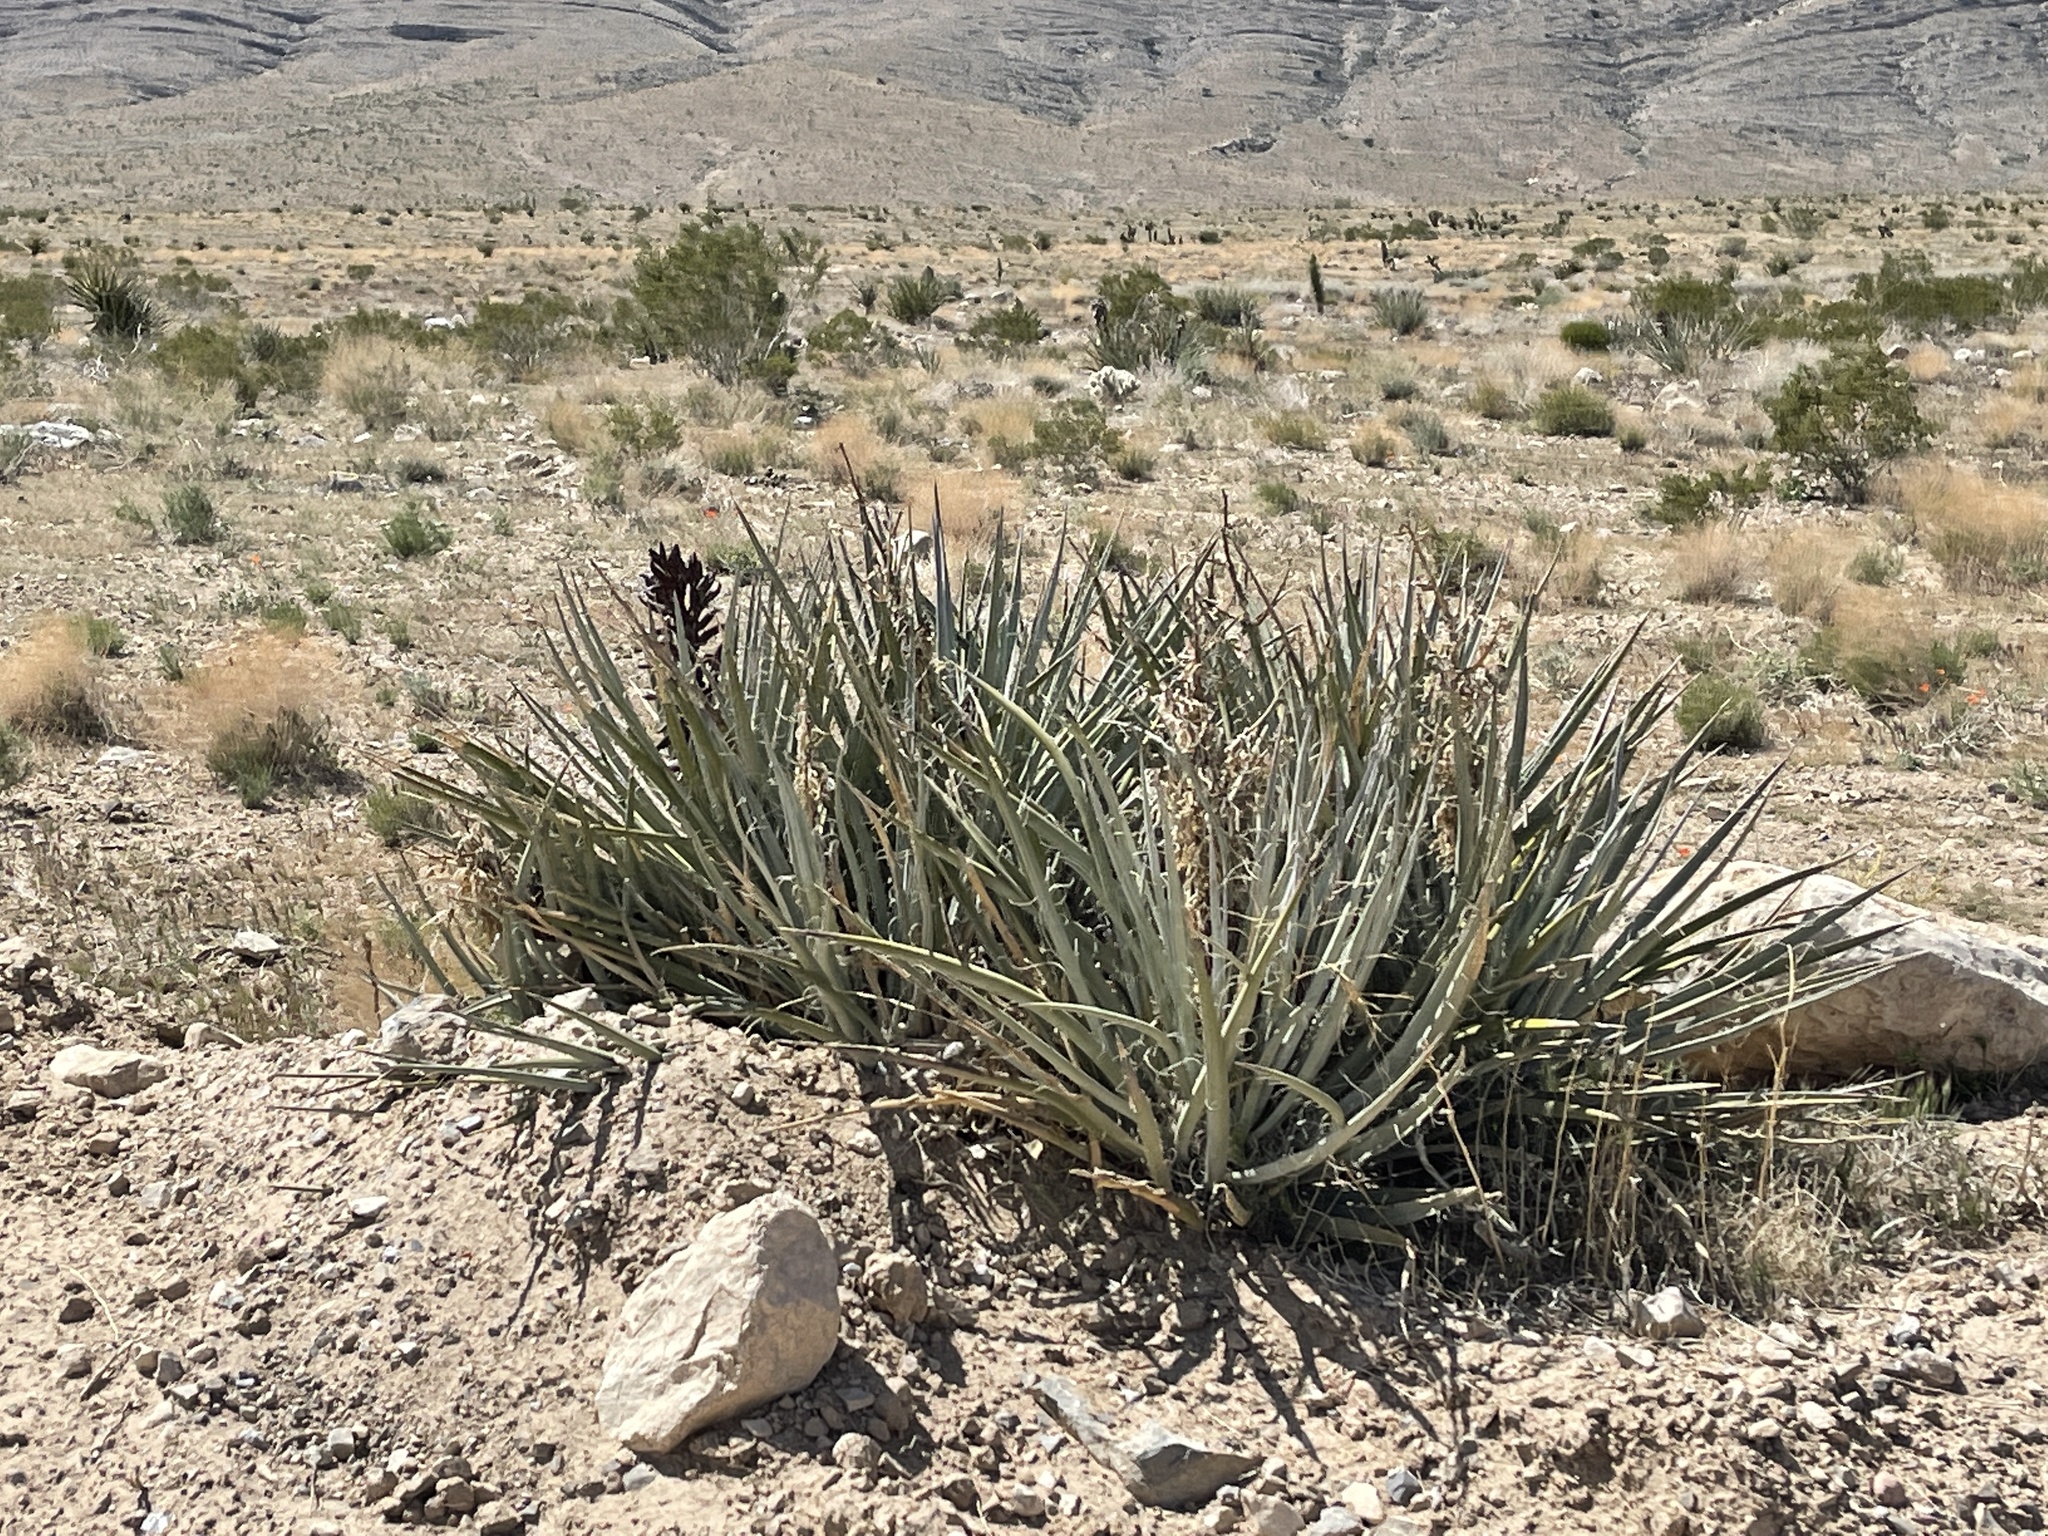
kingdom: Plantae
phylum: Tracheophyta
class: Liliopsida
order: Asparagales
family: Asparagaceae
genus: Yucca
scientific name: Yucca baccata
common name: Banana yucca
